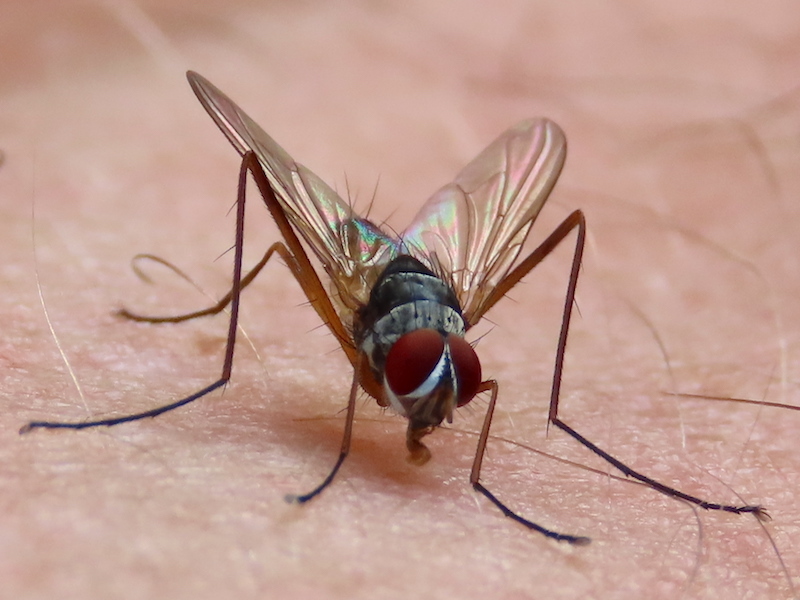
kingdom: Animalia
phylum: Arthropoda
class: Insecta
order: Diptera
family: Tachinidae
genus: Cholomyia
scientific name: Cholomyia inaequipes
